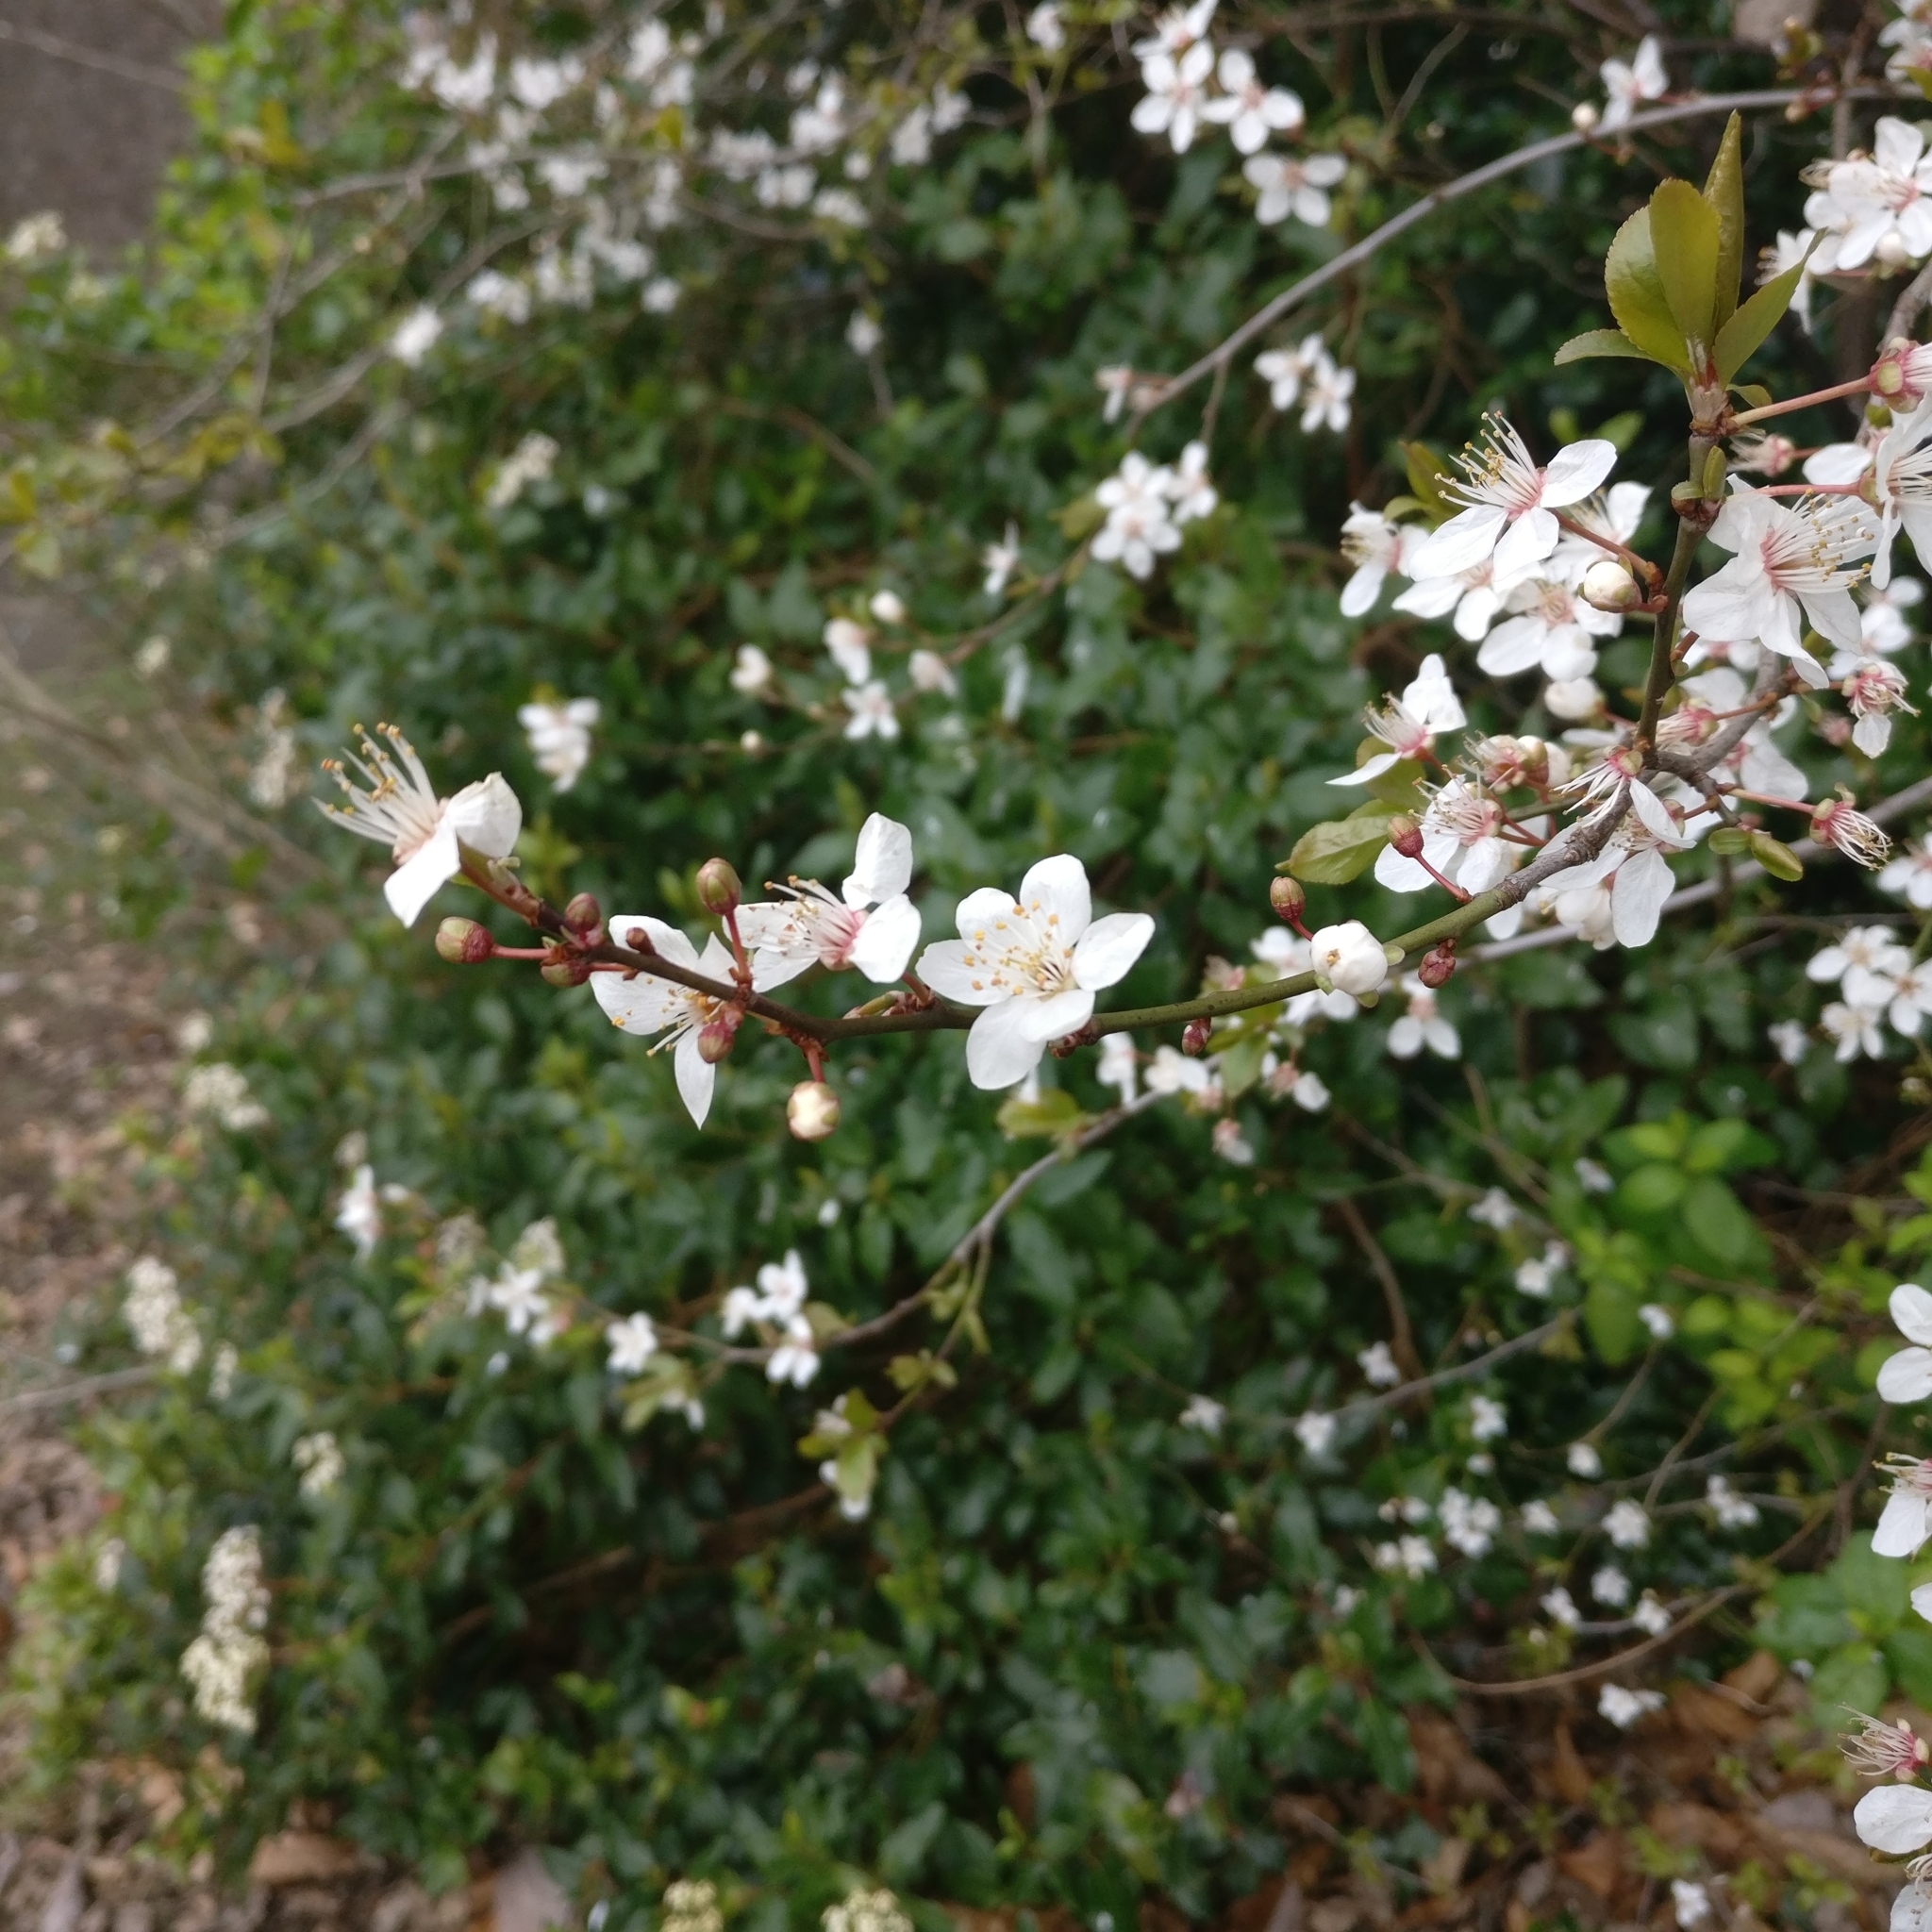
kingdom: Plantae
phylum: Tracheophyta
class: Magnoliopsida
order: Rosales
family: Rosaceae
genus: Prunus
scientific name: Prunus cerasifera
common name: Cherry plum
